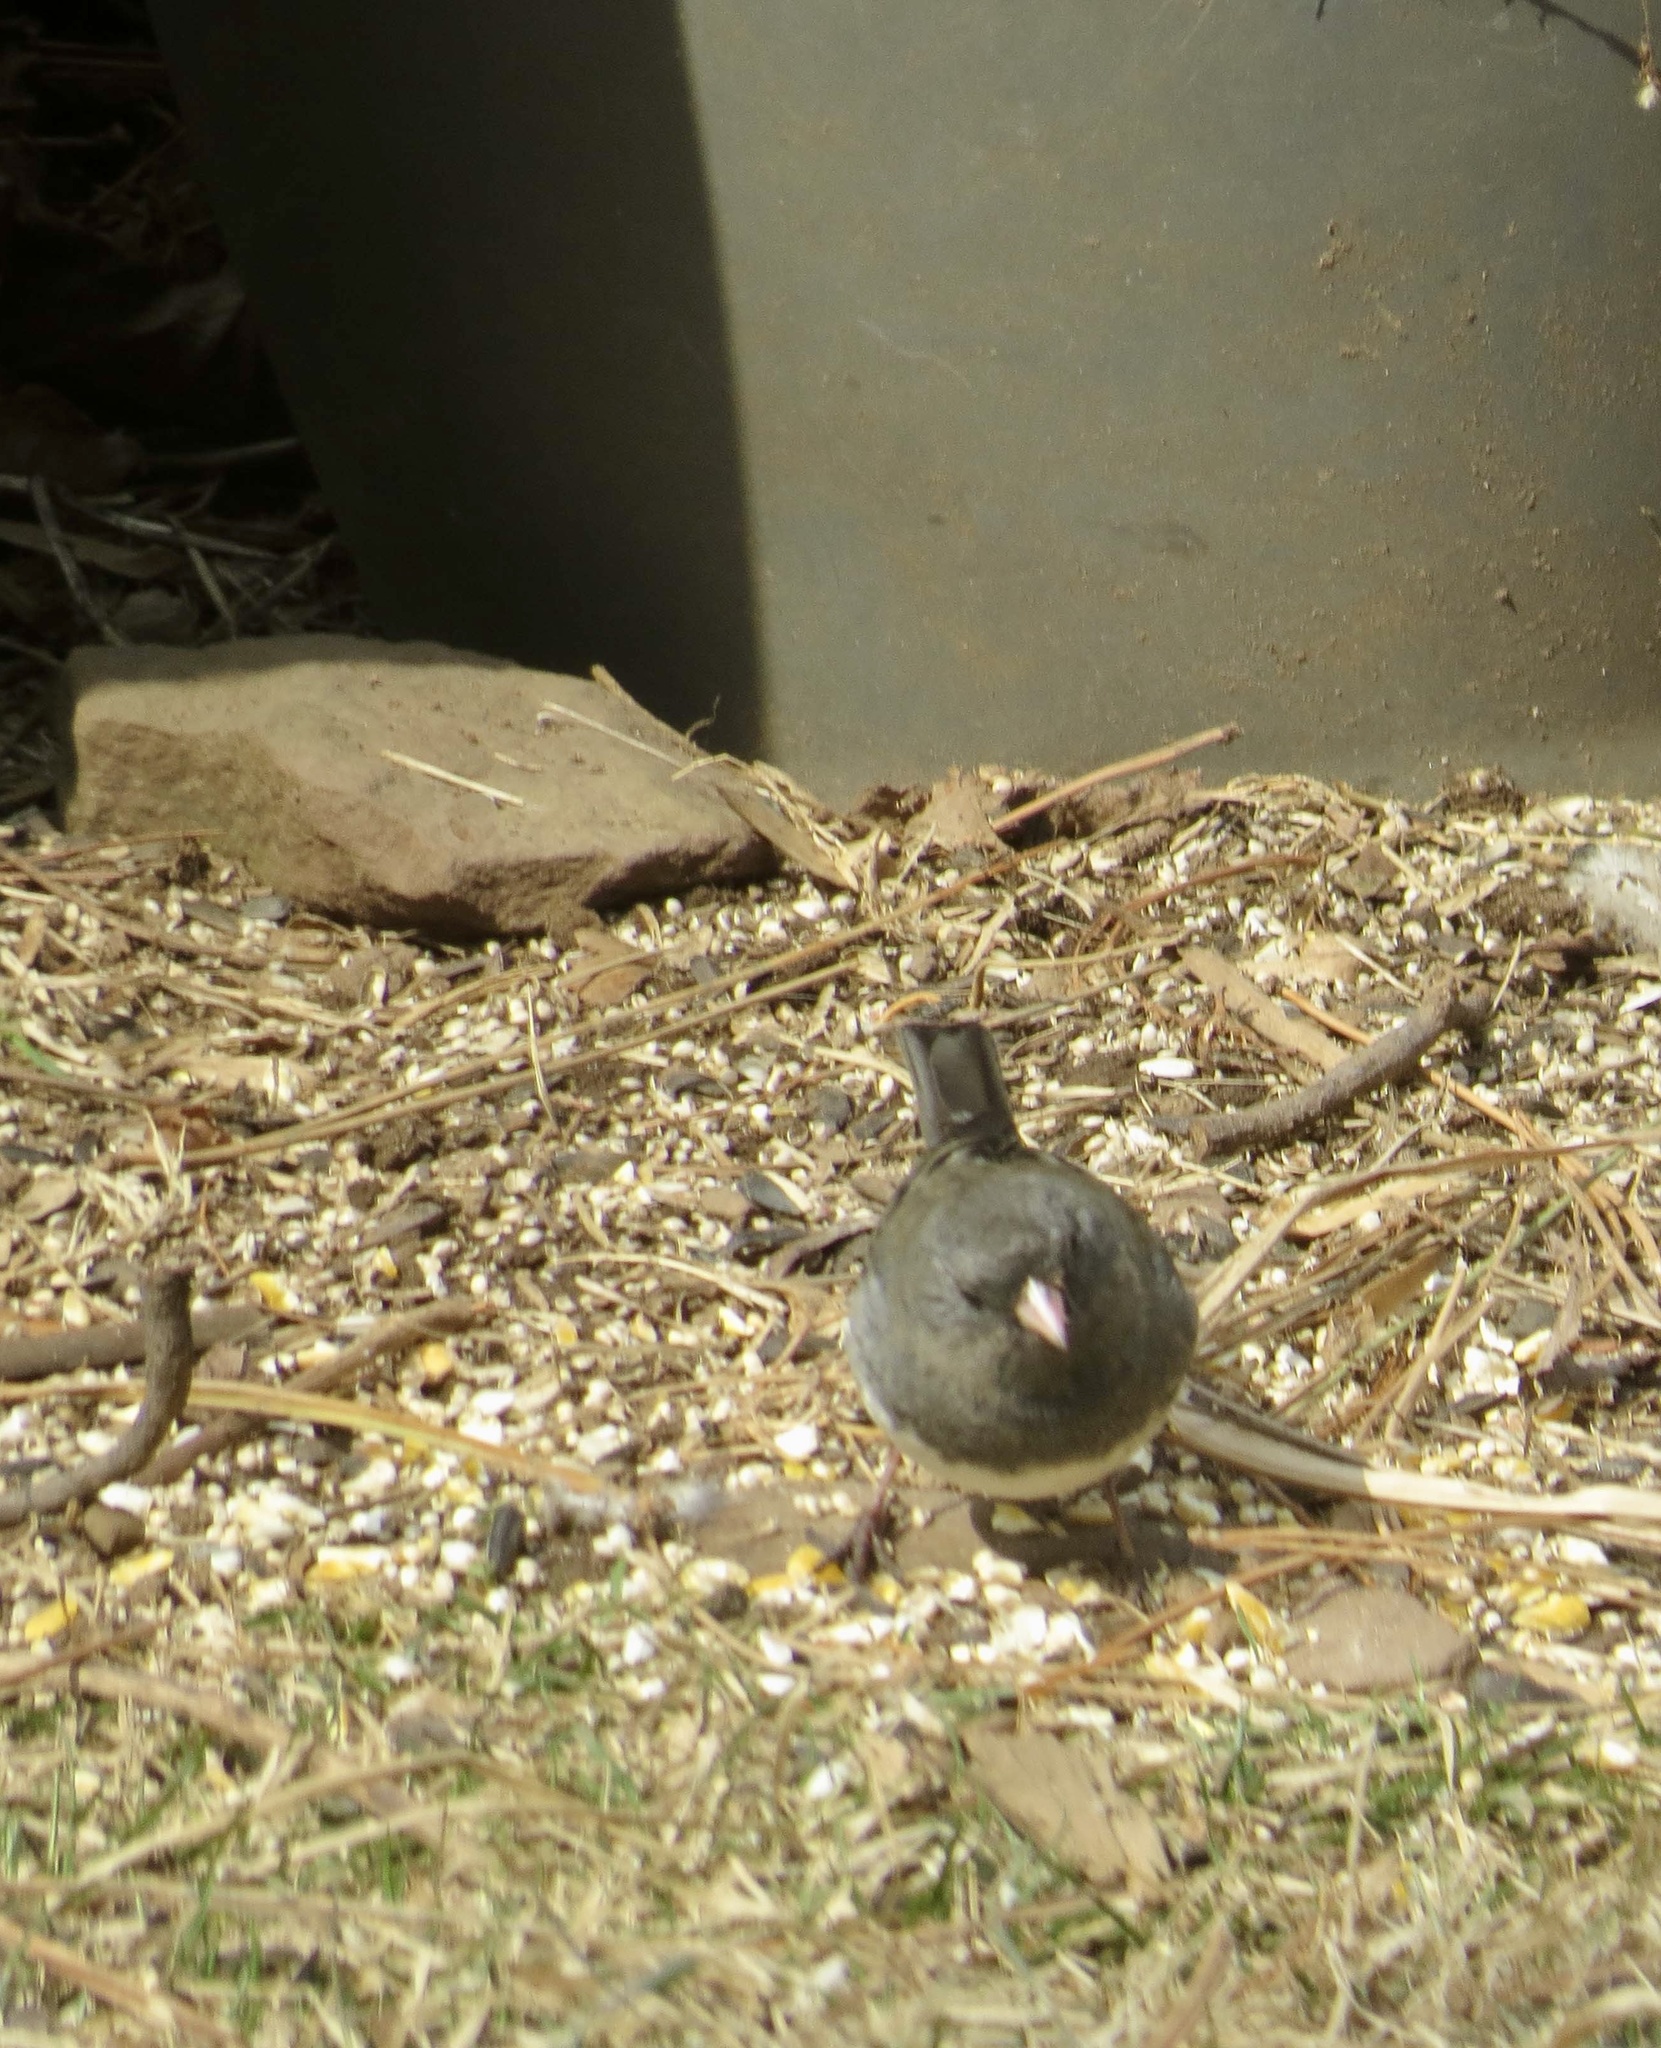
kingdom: Animalia
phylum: Chordata
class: Aves
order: Passeriformes
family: Passerellidae
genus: Junco
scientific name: Junco hyemalis
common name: Dark-eyed junco
